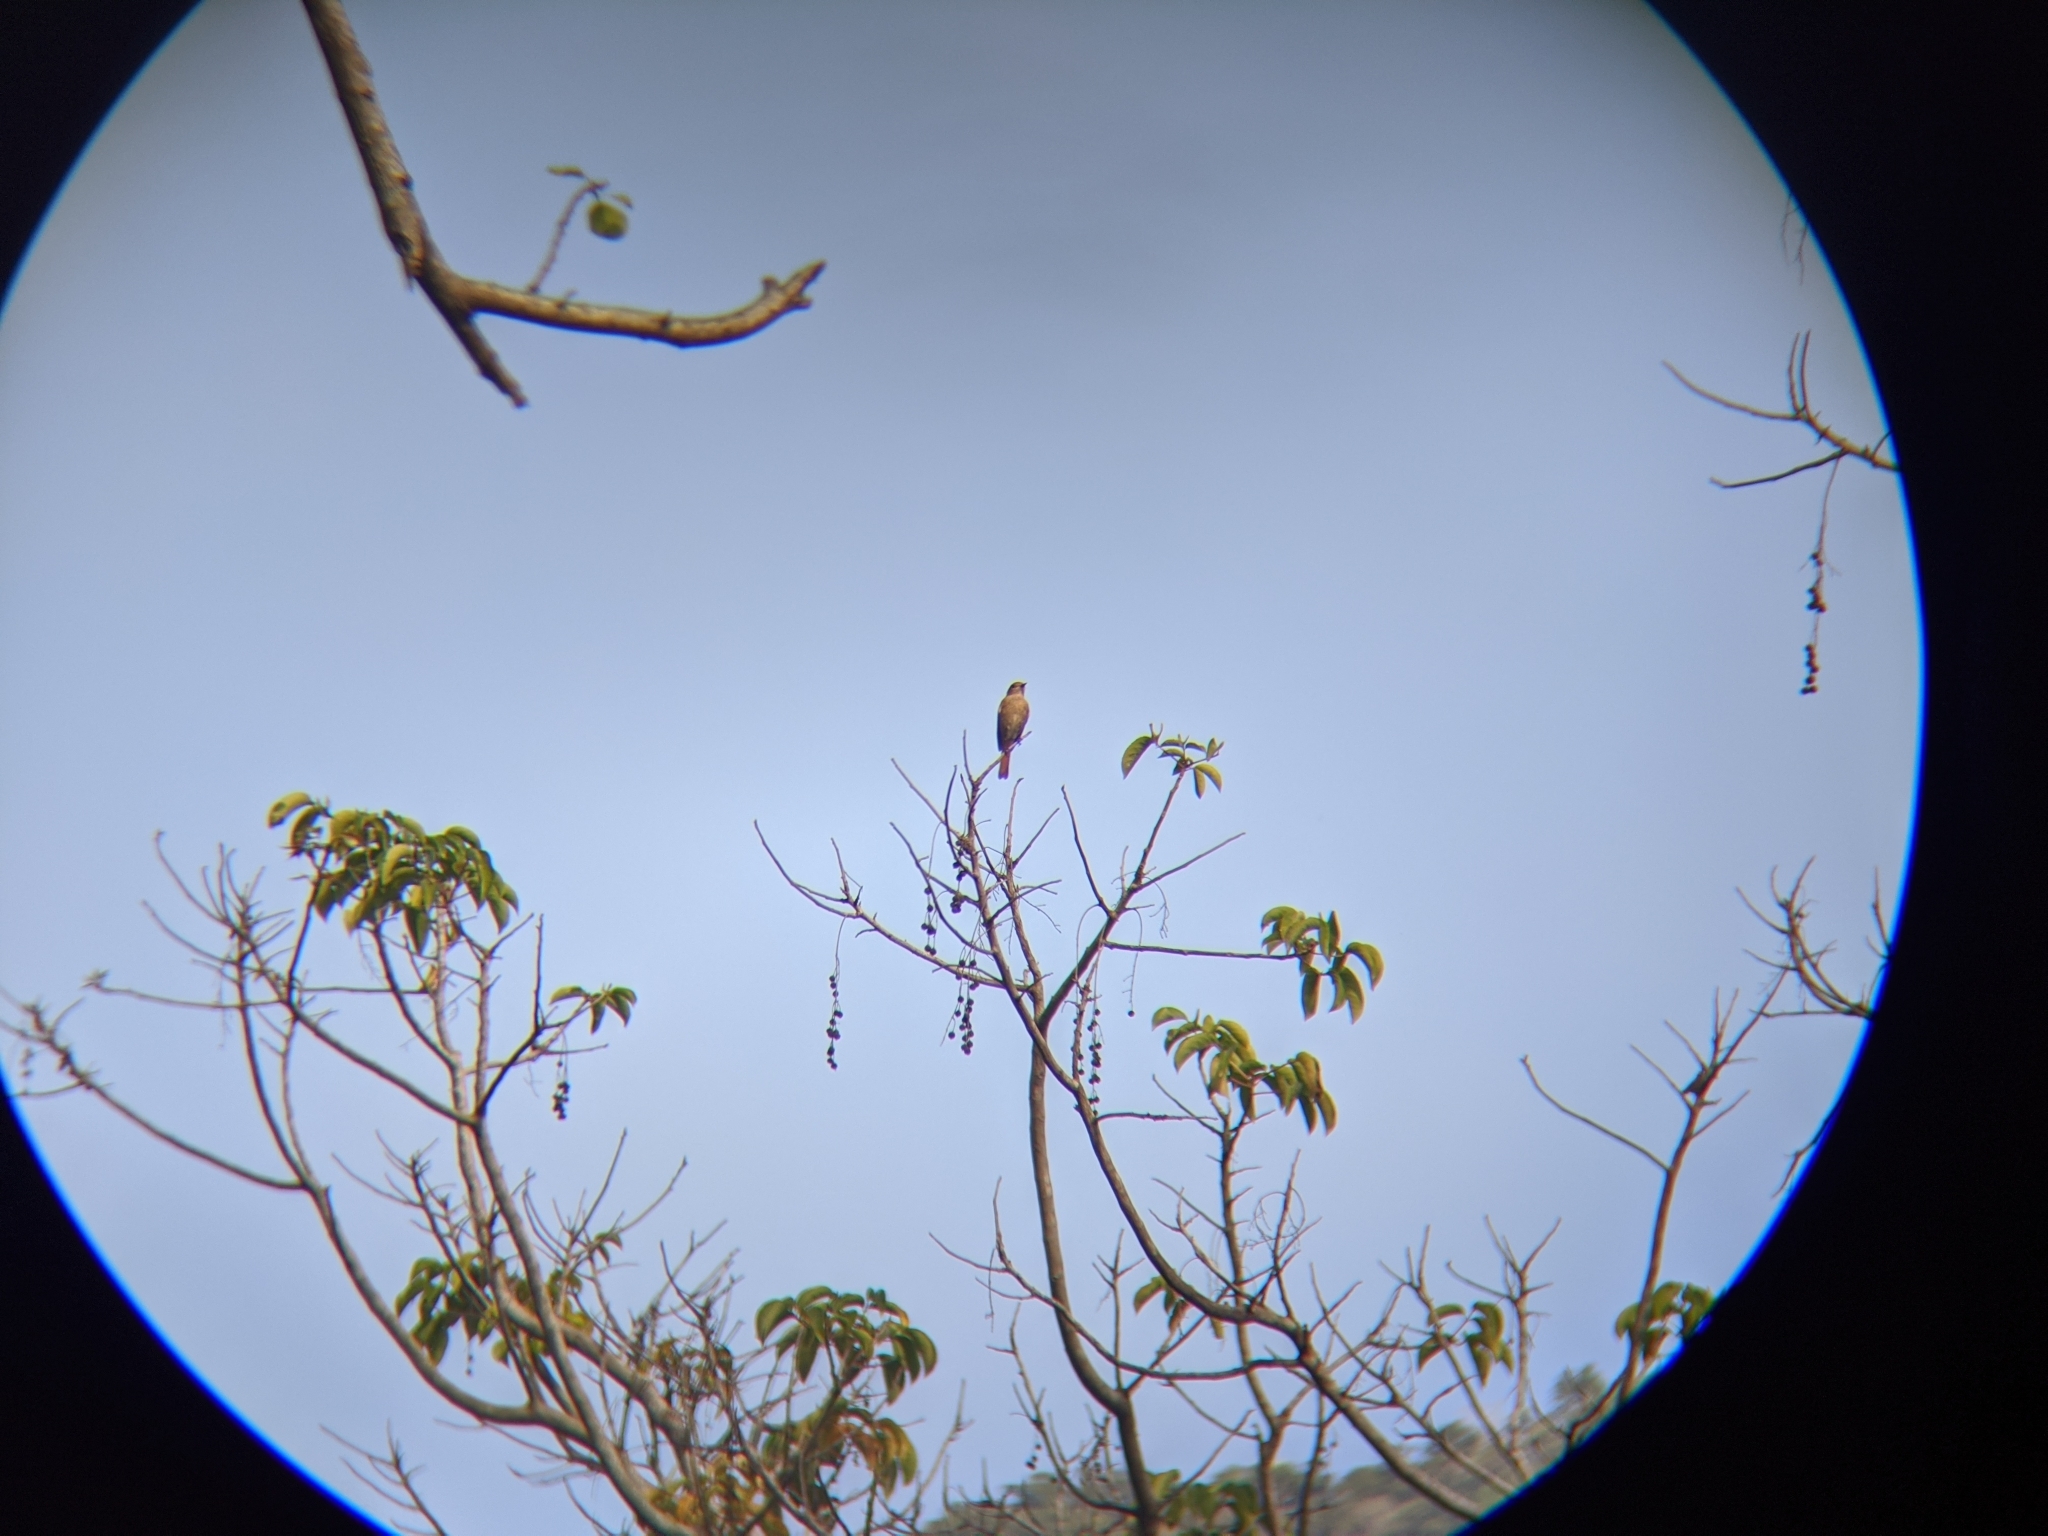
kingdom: Animalia
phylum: Chordata
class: Aves
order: Passeriformes
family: Muscicapidae
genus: Phoenicurus
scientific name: Phoenicurus auroreus
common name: Daurian redstart
